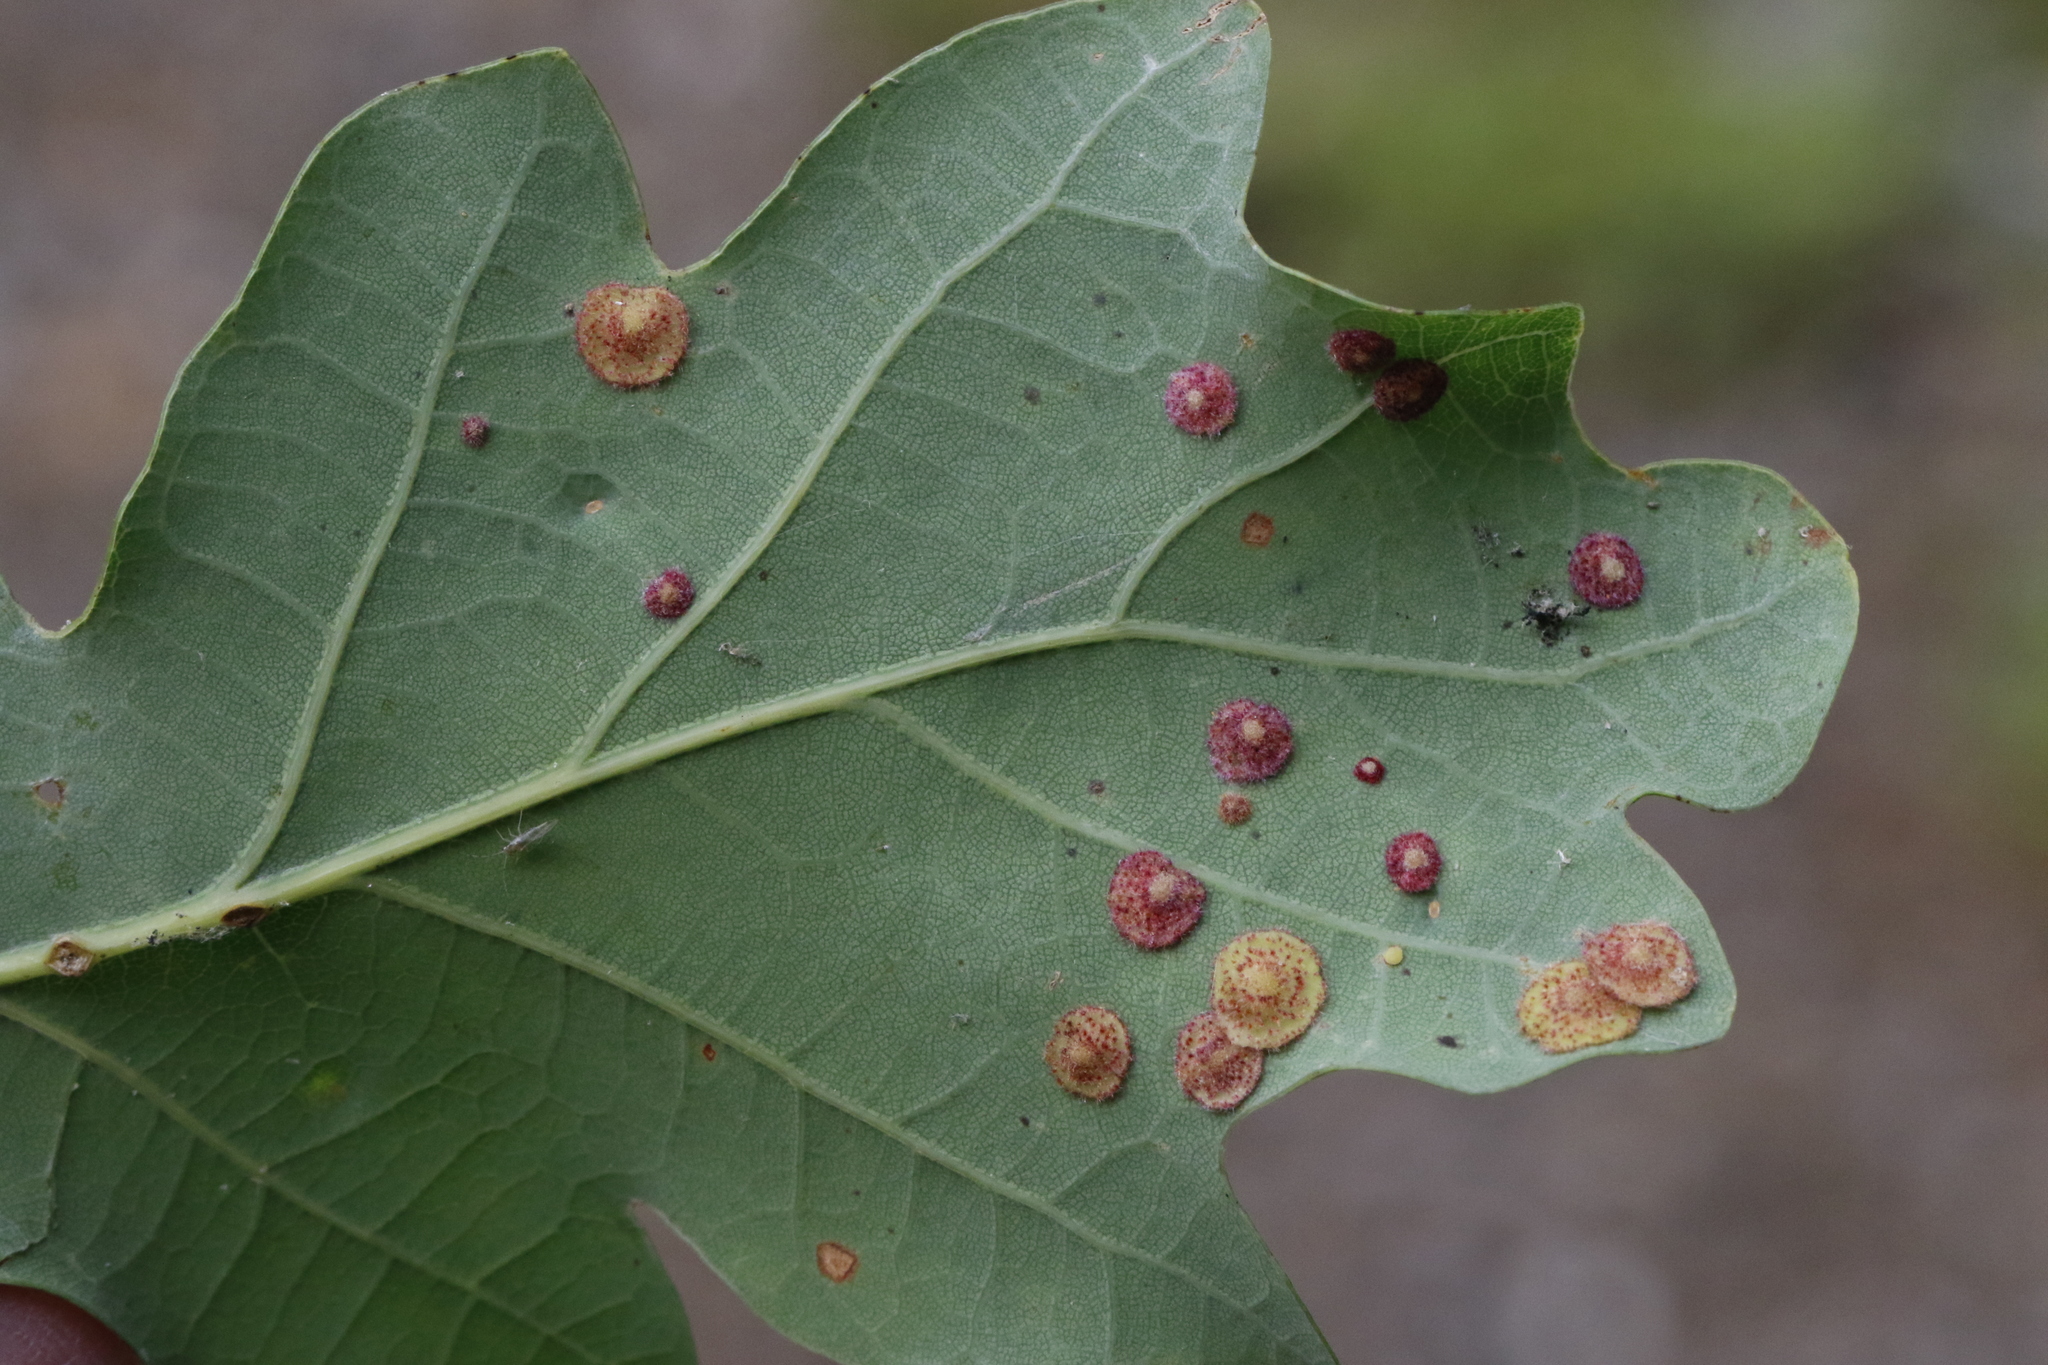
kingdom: Animalia
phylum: Arthropoda
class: Insecta
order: Hymenoptera
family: Cynipidae
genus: Neuroterus
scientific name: Neuroterus quercusbaccarum
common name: Common spangle gall
